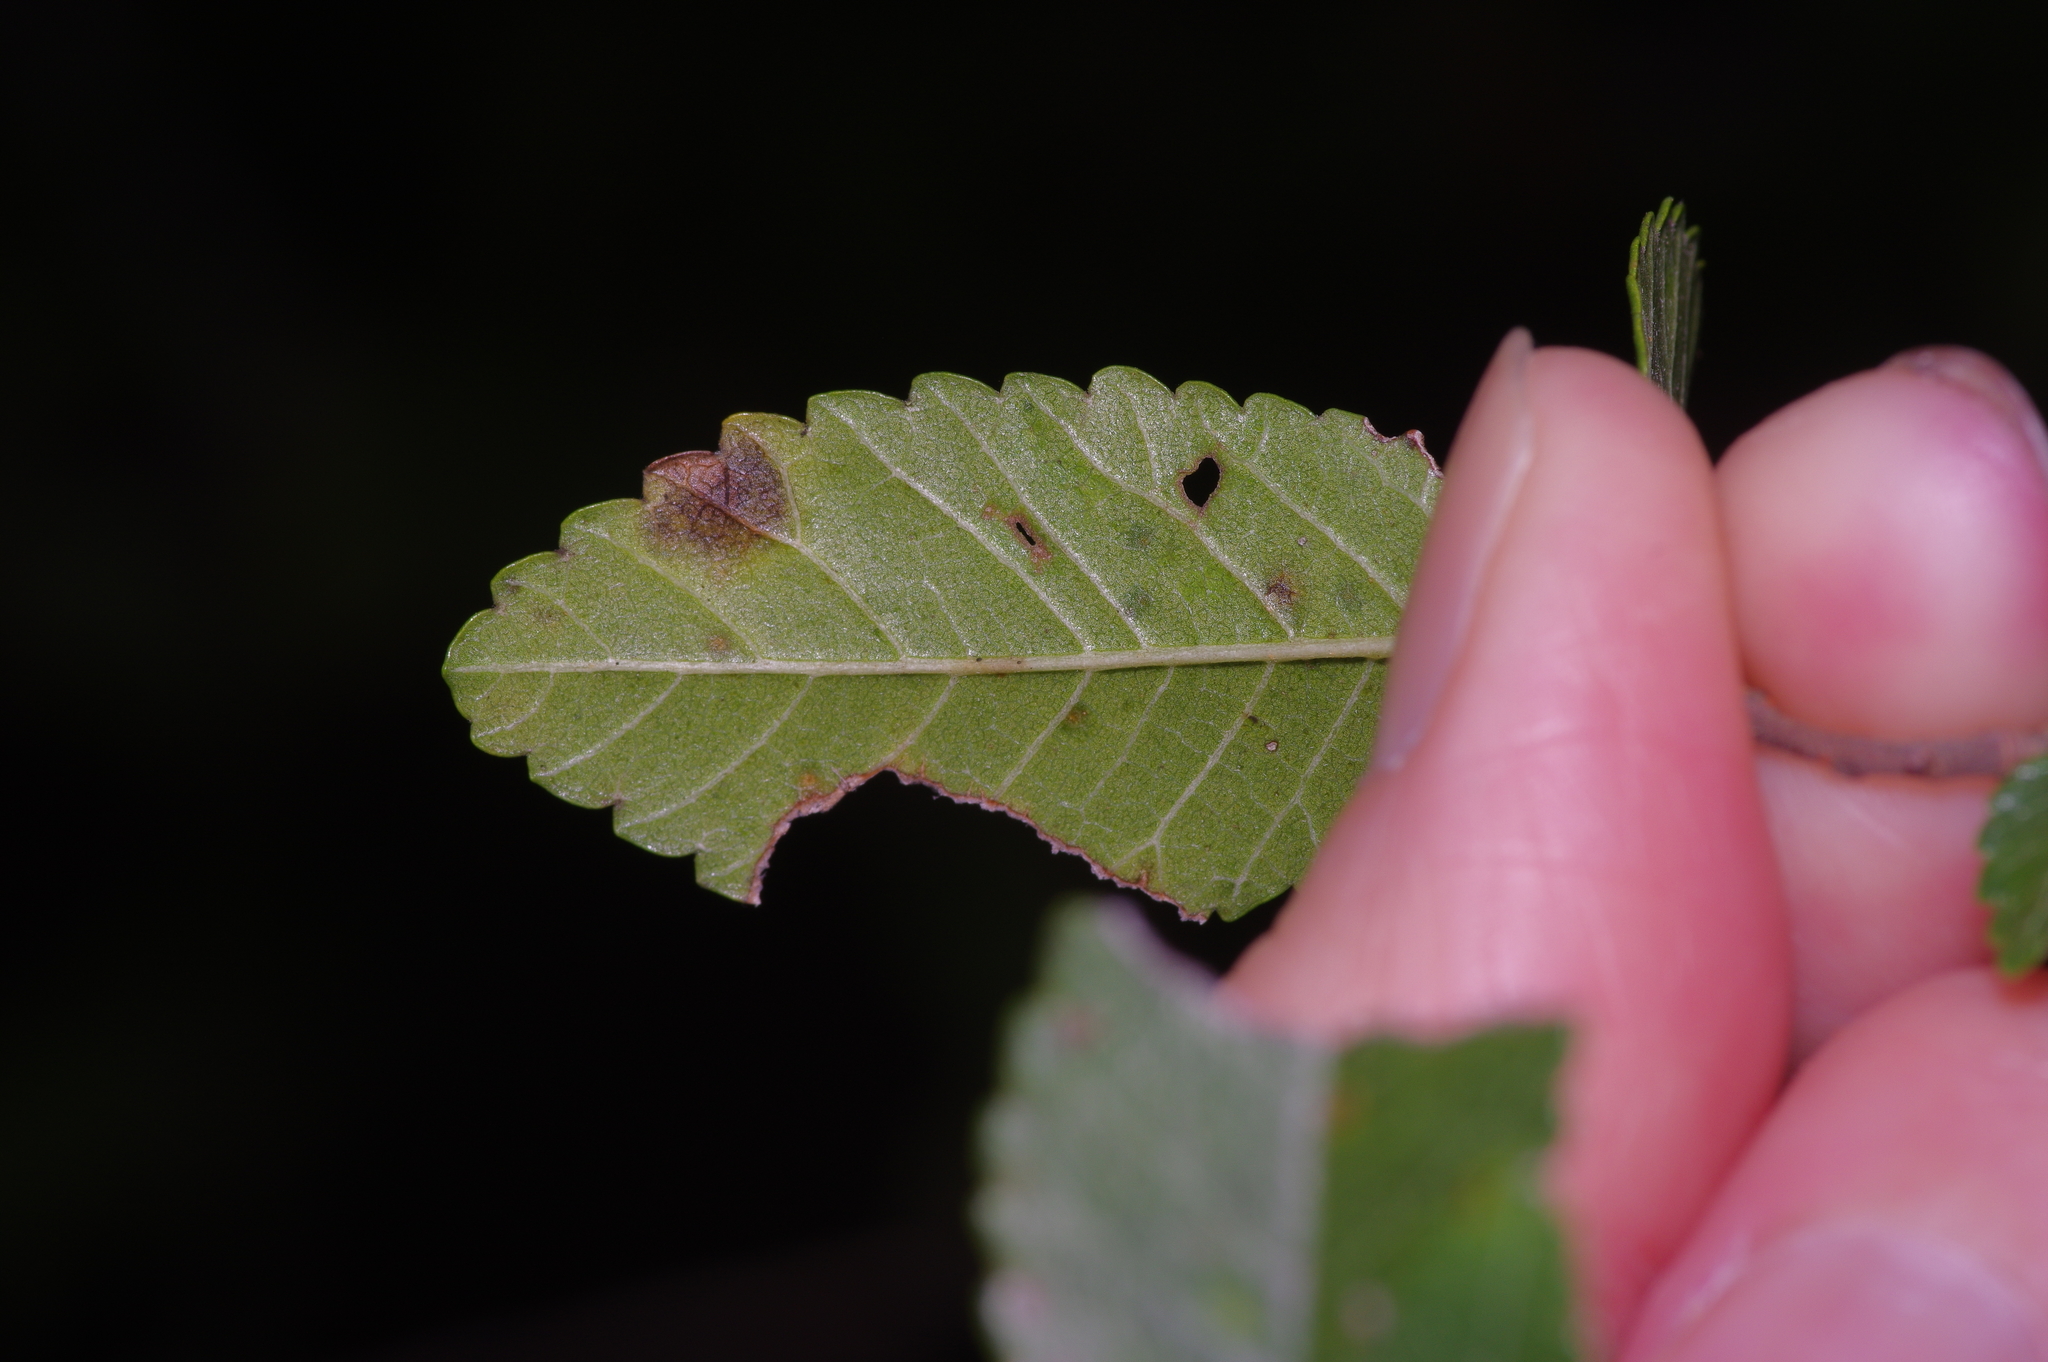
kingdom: Plantae
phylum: Tracheophyta
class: Magnoliopsida
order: Rosales
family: Ulmaceae
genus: Ulmus
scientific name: Ulmus parvifolia
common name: Chinese elm
